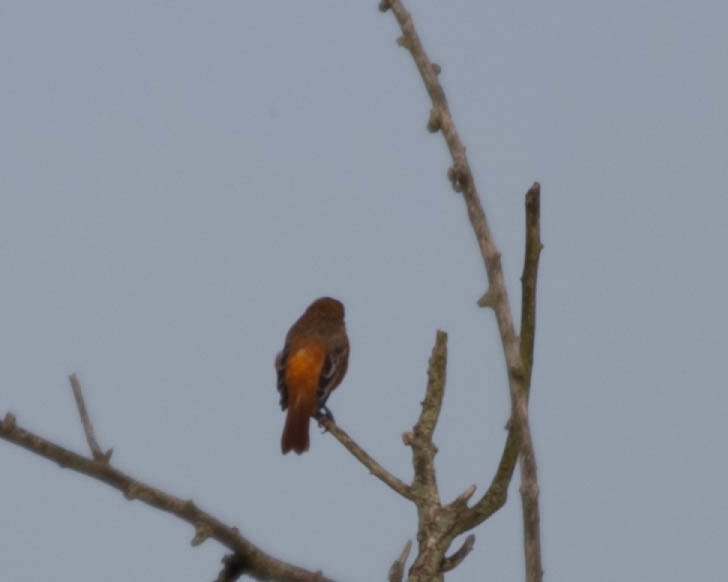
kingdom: Animalia
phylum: Chordata
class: Aves
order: Passeriformes
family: Icteridae
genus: Icterus
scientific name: Icterus galbula
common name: Baltimore oriole
